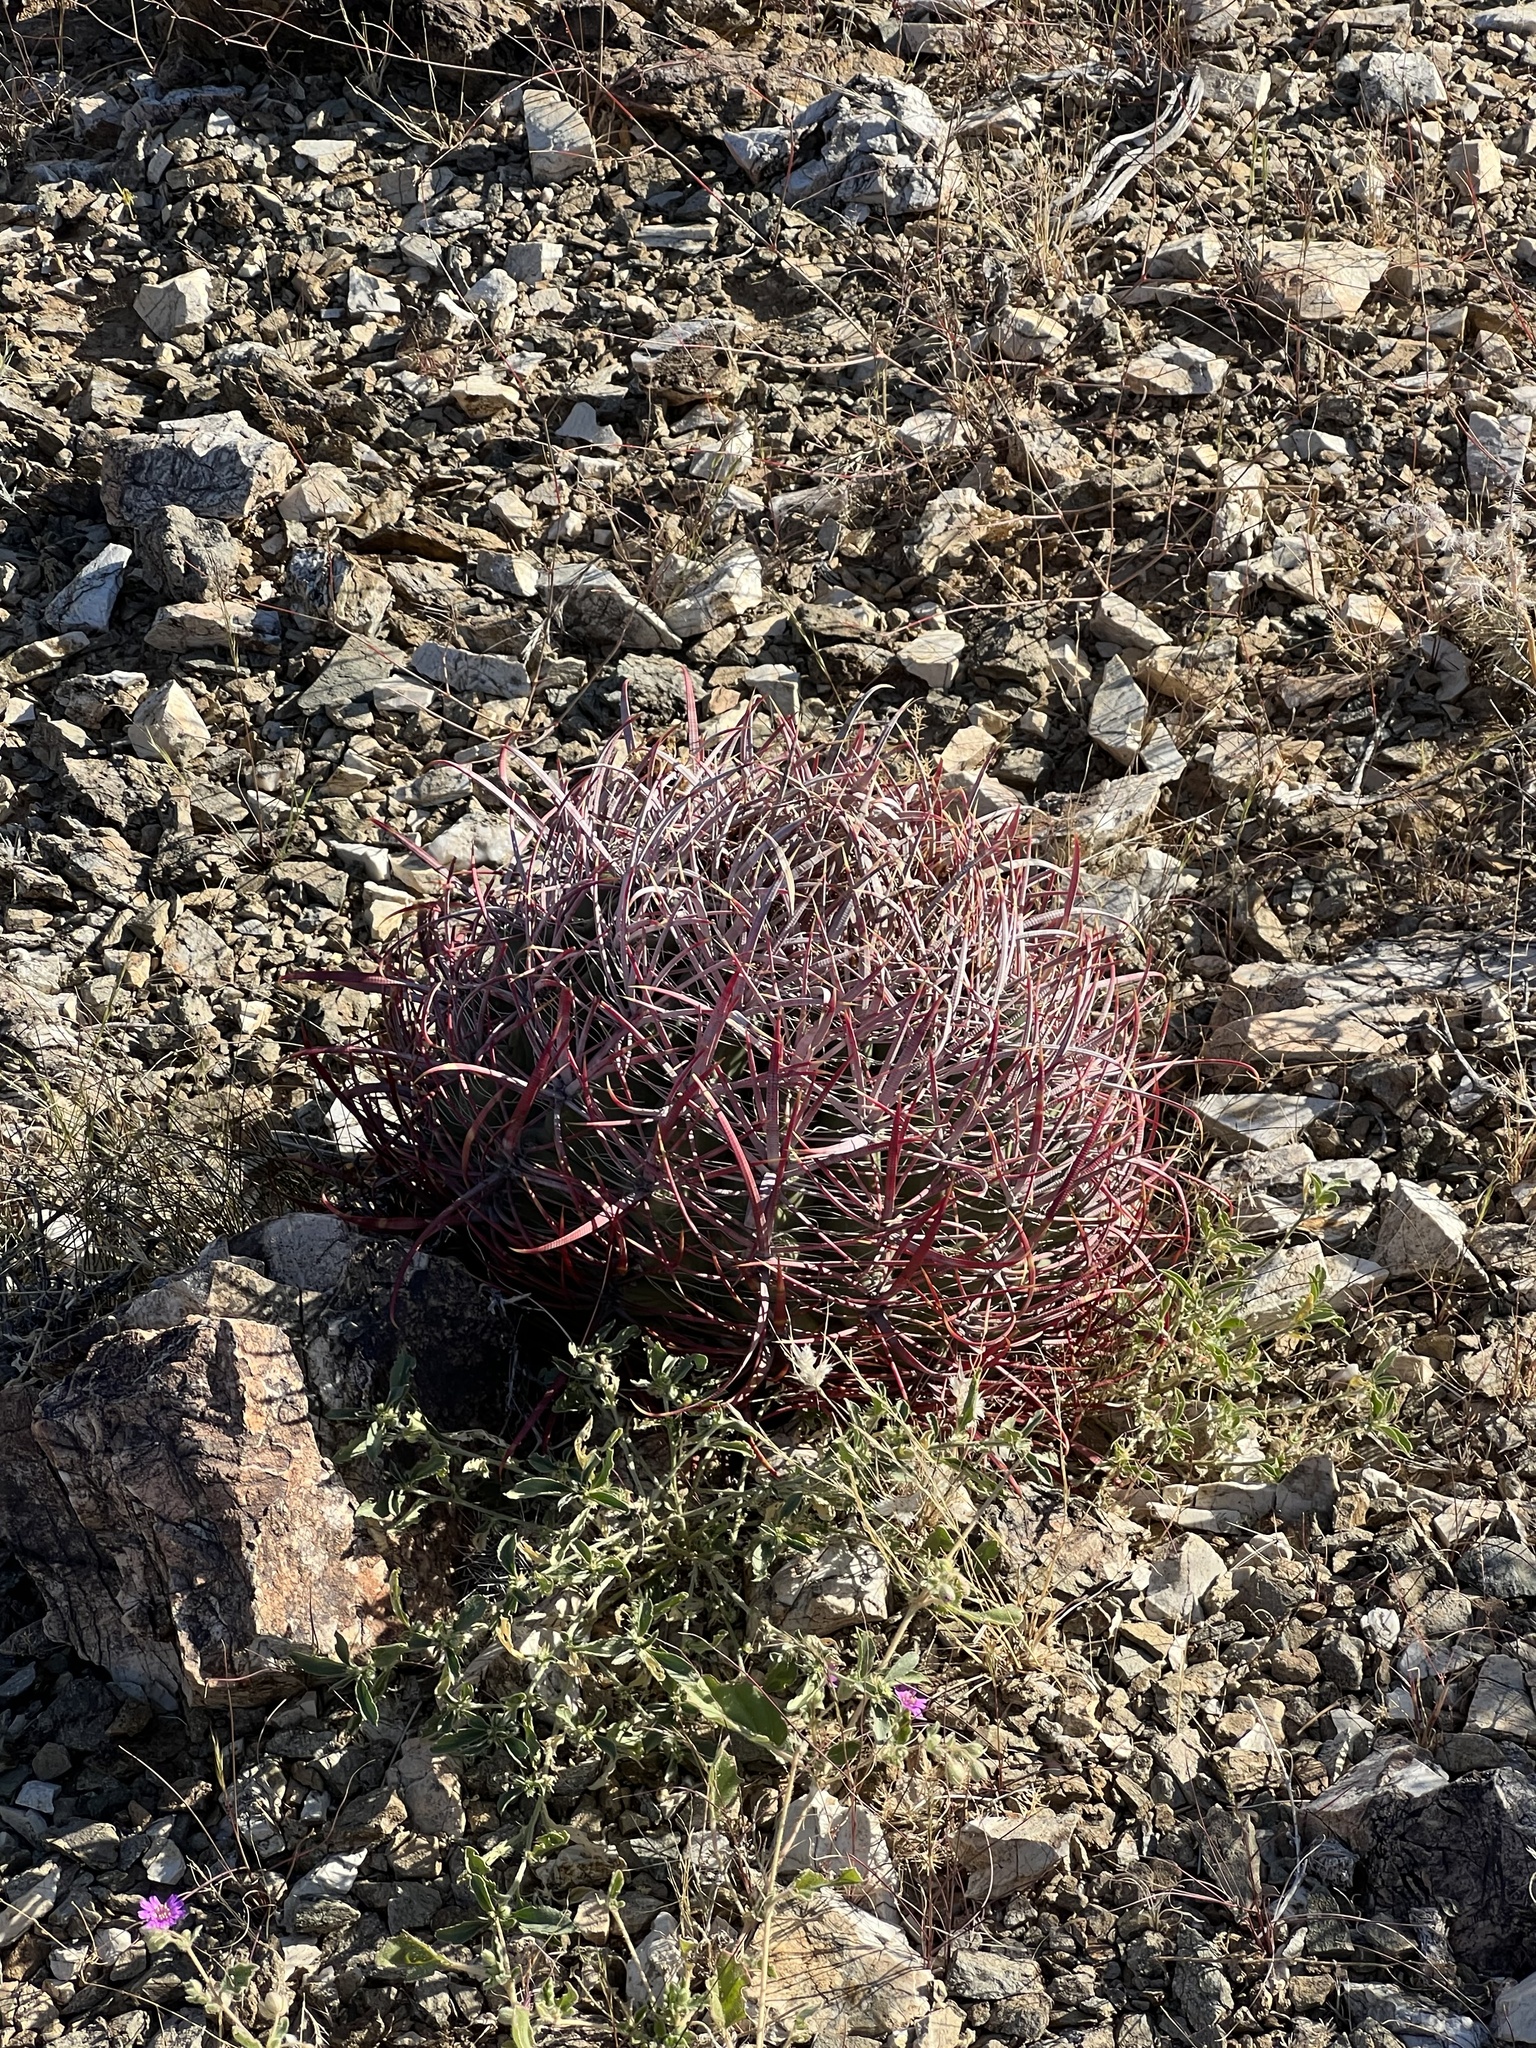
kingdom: Plantae
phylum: Tracheophyta
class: Magnoliopsida
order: Caryophyllales
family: Cactaceae
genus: Ferocactus
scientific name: Ferocactus cylindraceus
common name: California barrel cactus
